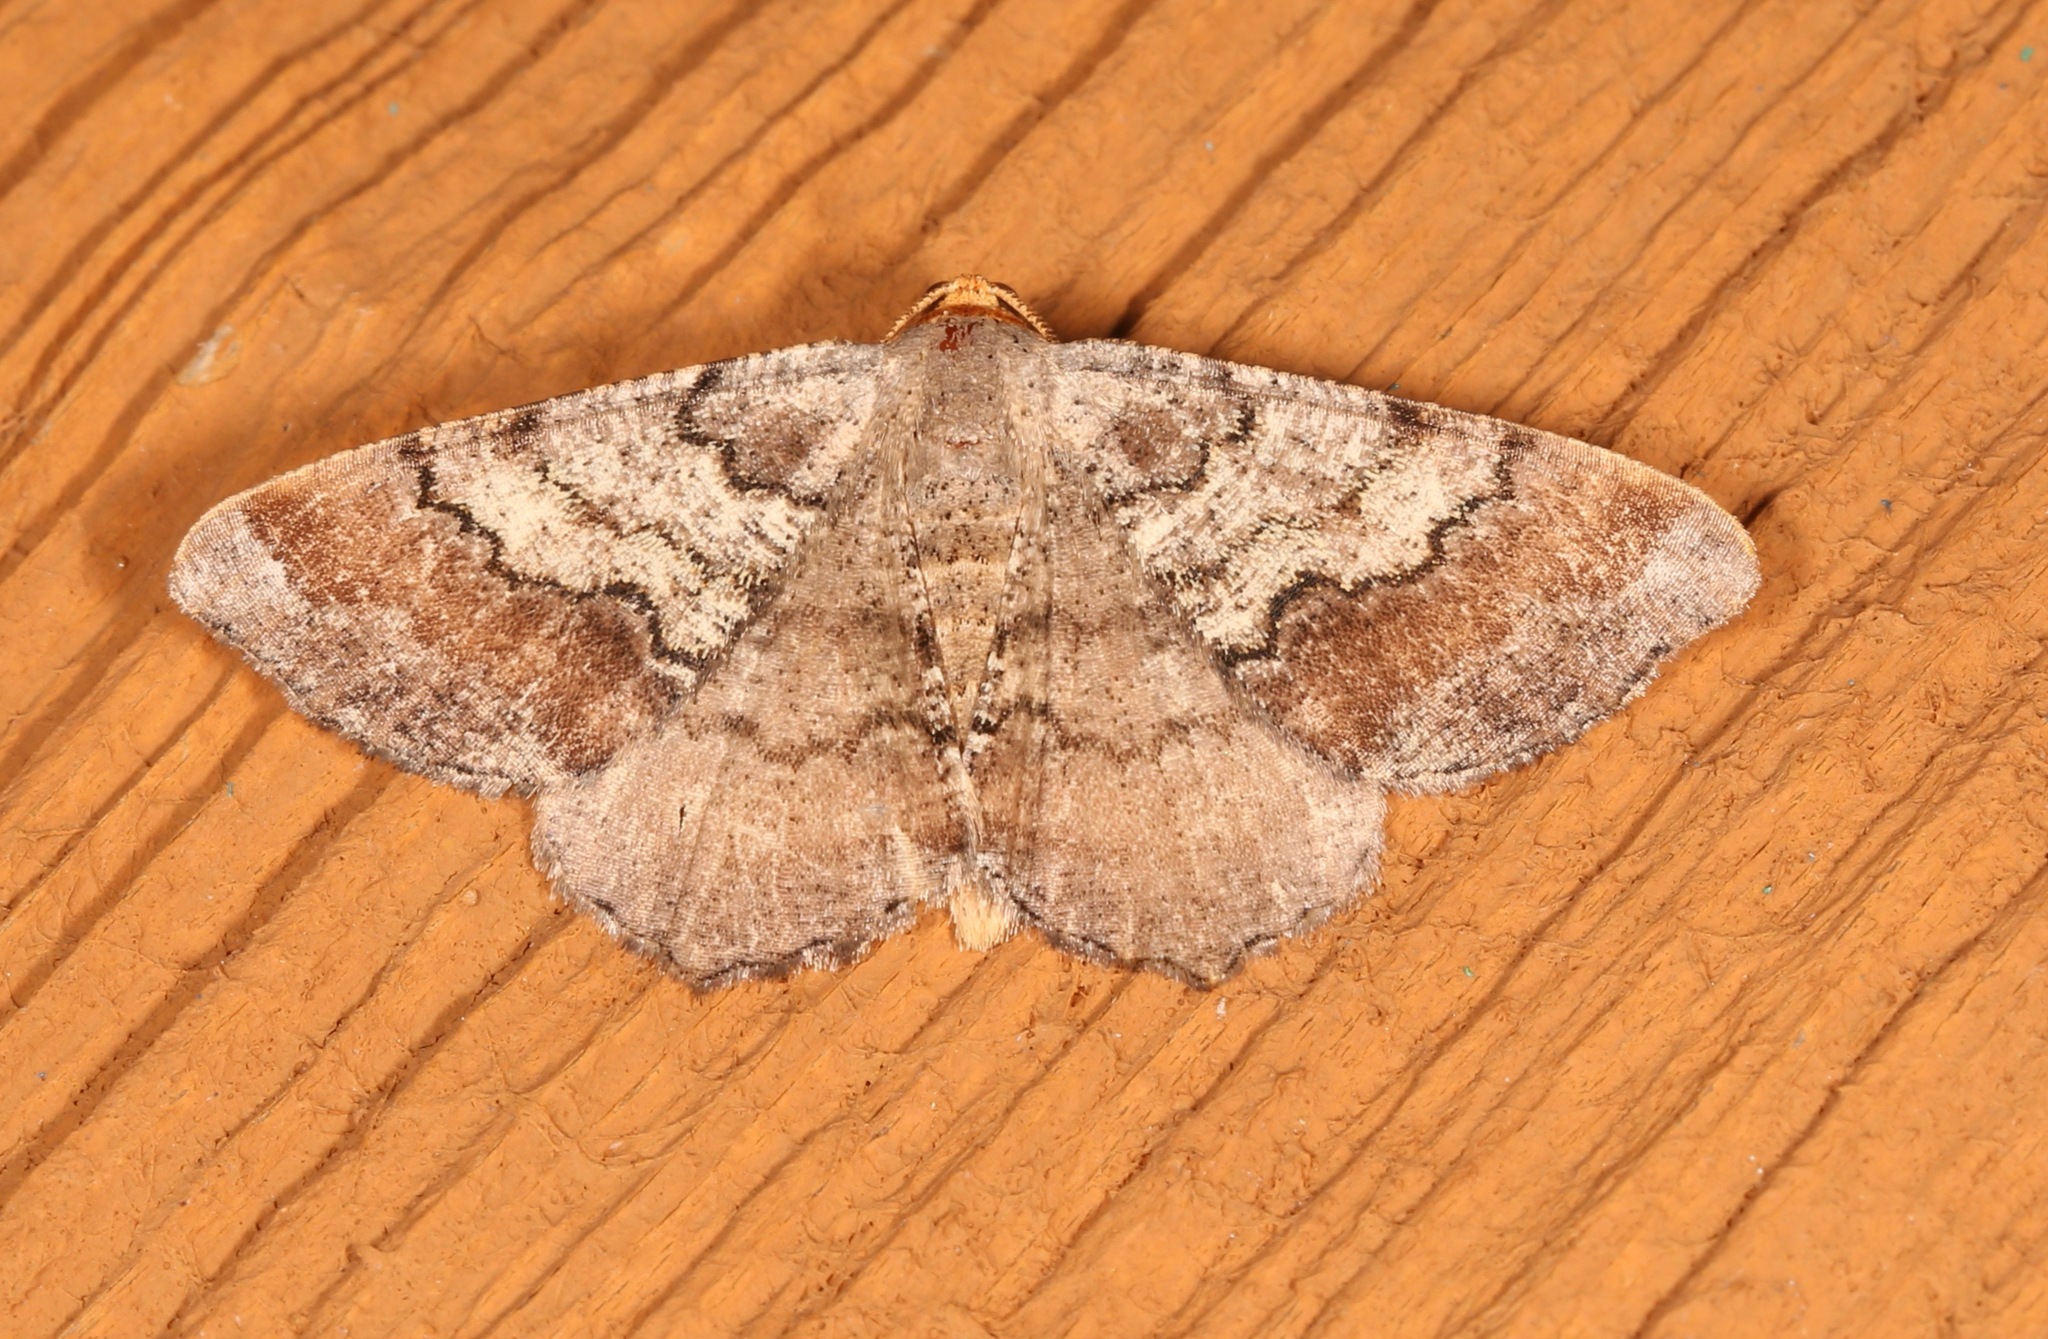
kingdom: Animalia
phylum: Arthropoda
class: Insecta
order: Lepidoptera
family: Geometridae
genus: Macaria
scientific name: Macaria distribuaria
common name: Southern chocolate angle
